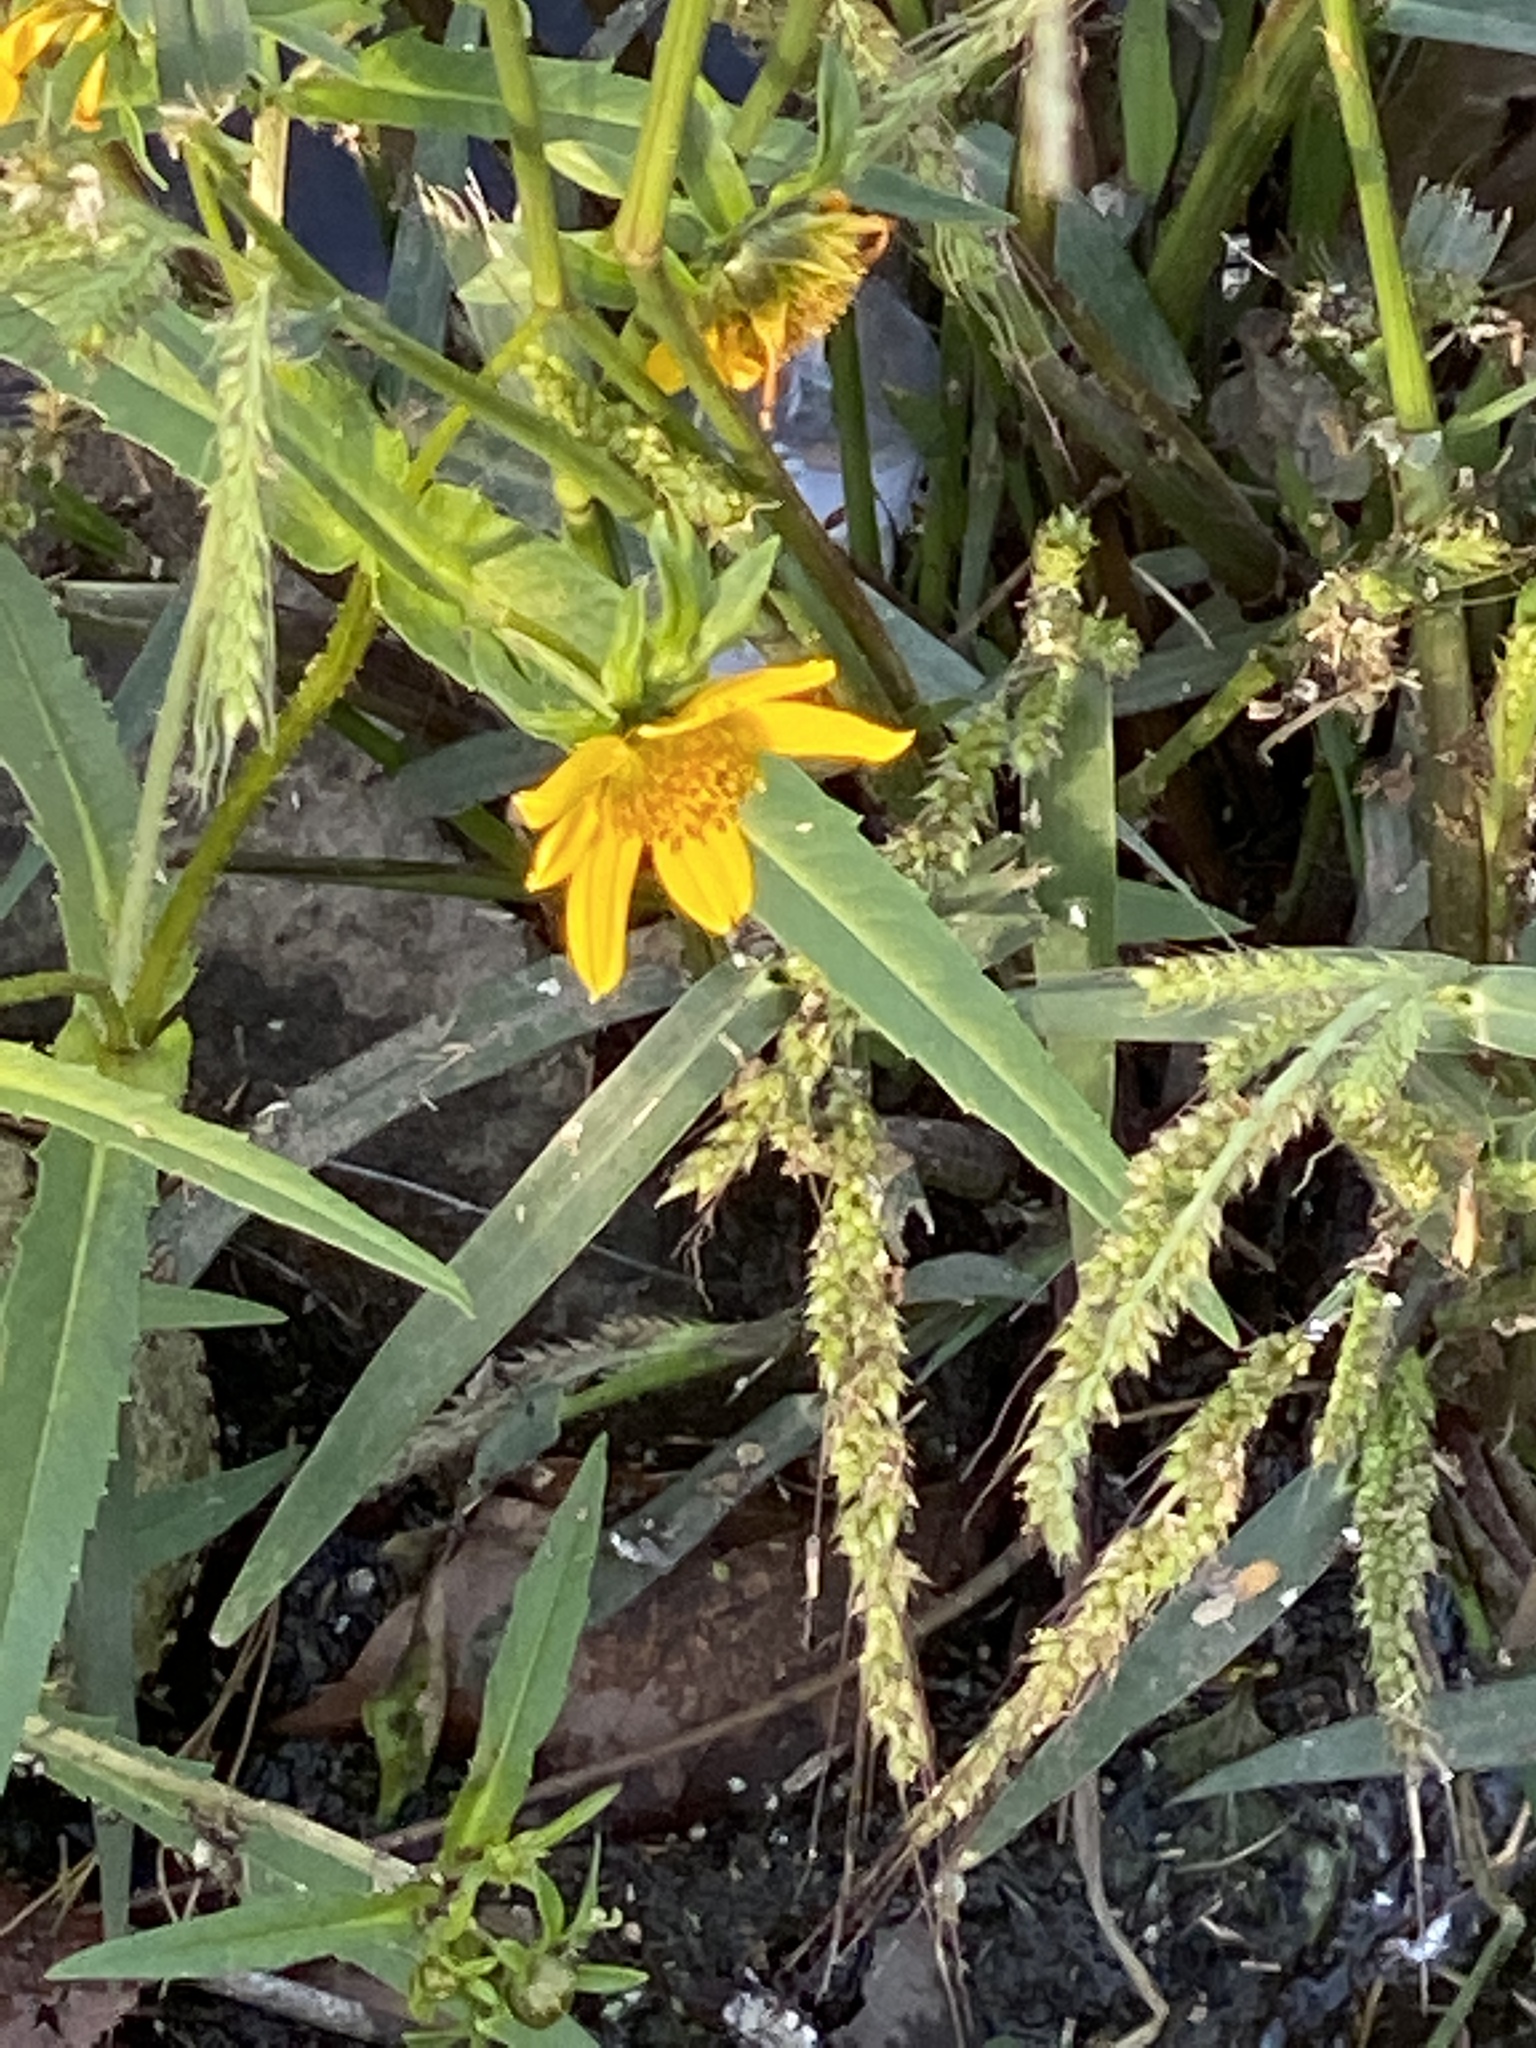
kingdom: Plantae
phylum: Tracheophyta
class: Magnoliopsida
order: Asterales
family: Asteraceae
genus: Bidens
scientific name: Bidens cernua
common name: Nodding bur-marigold
